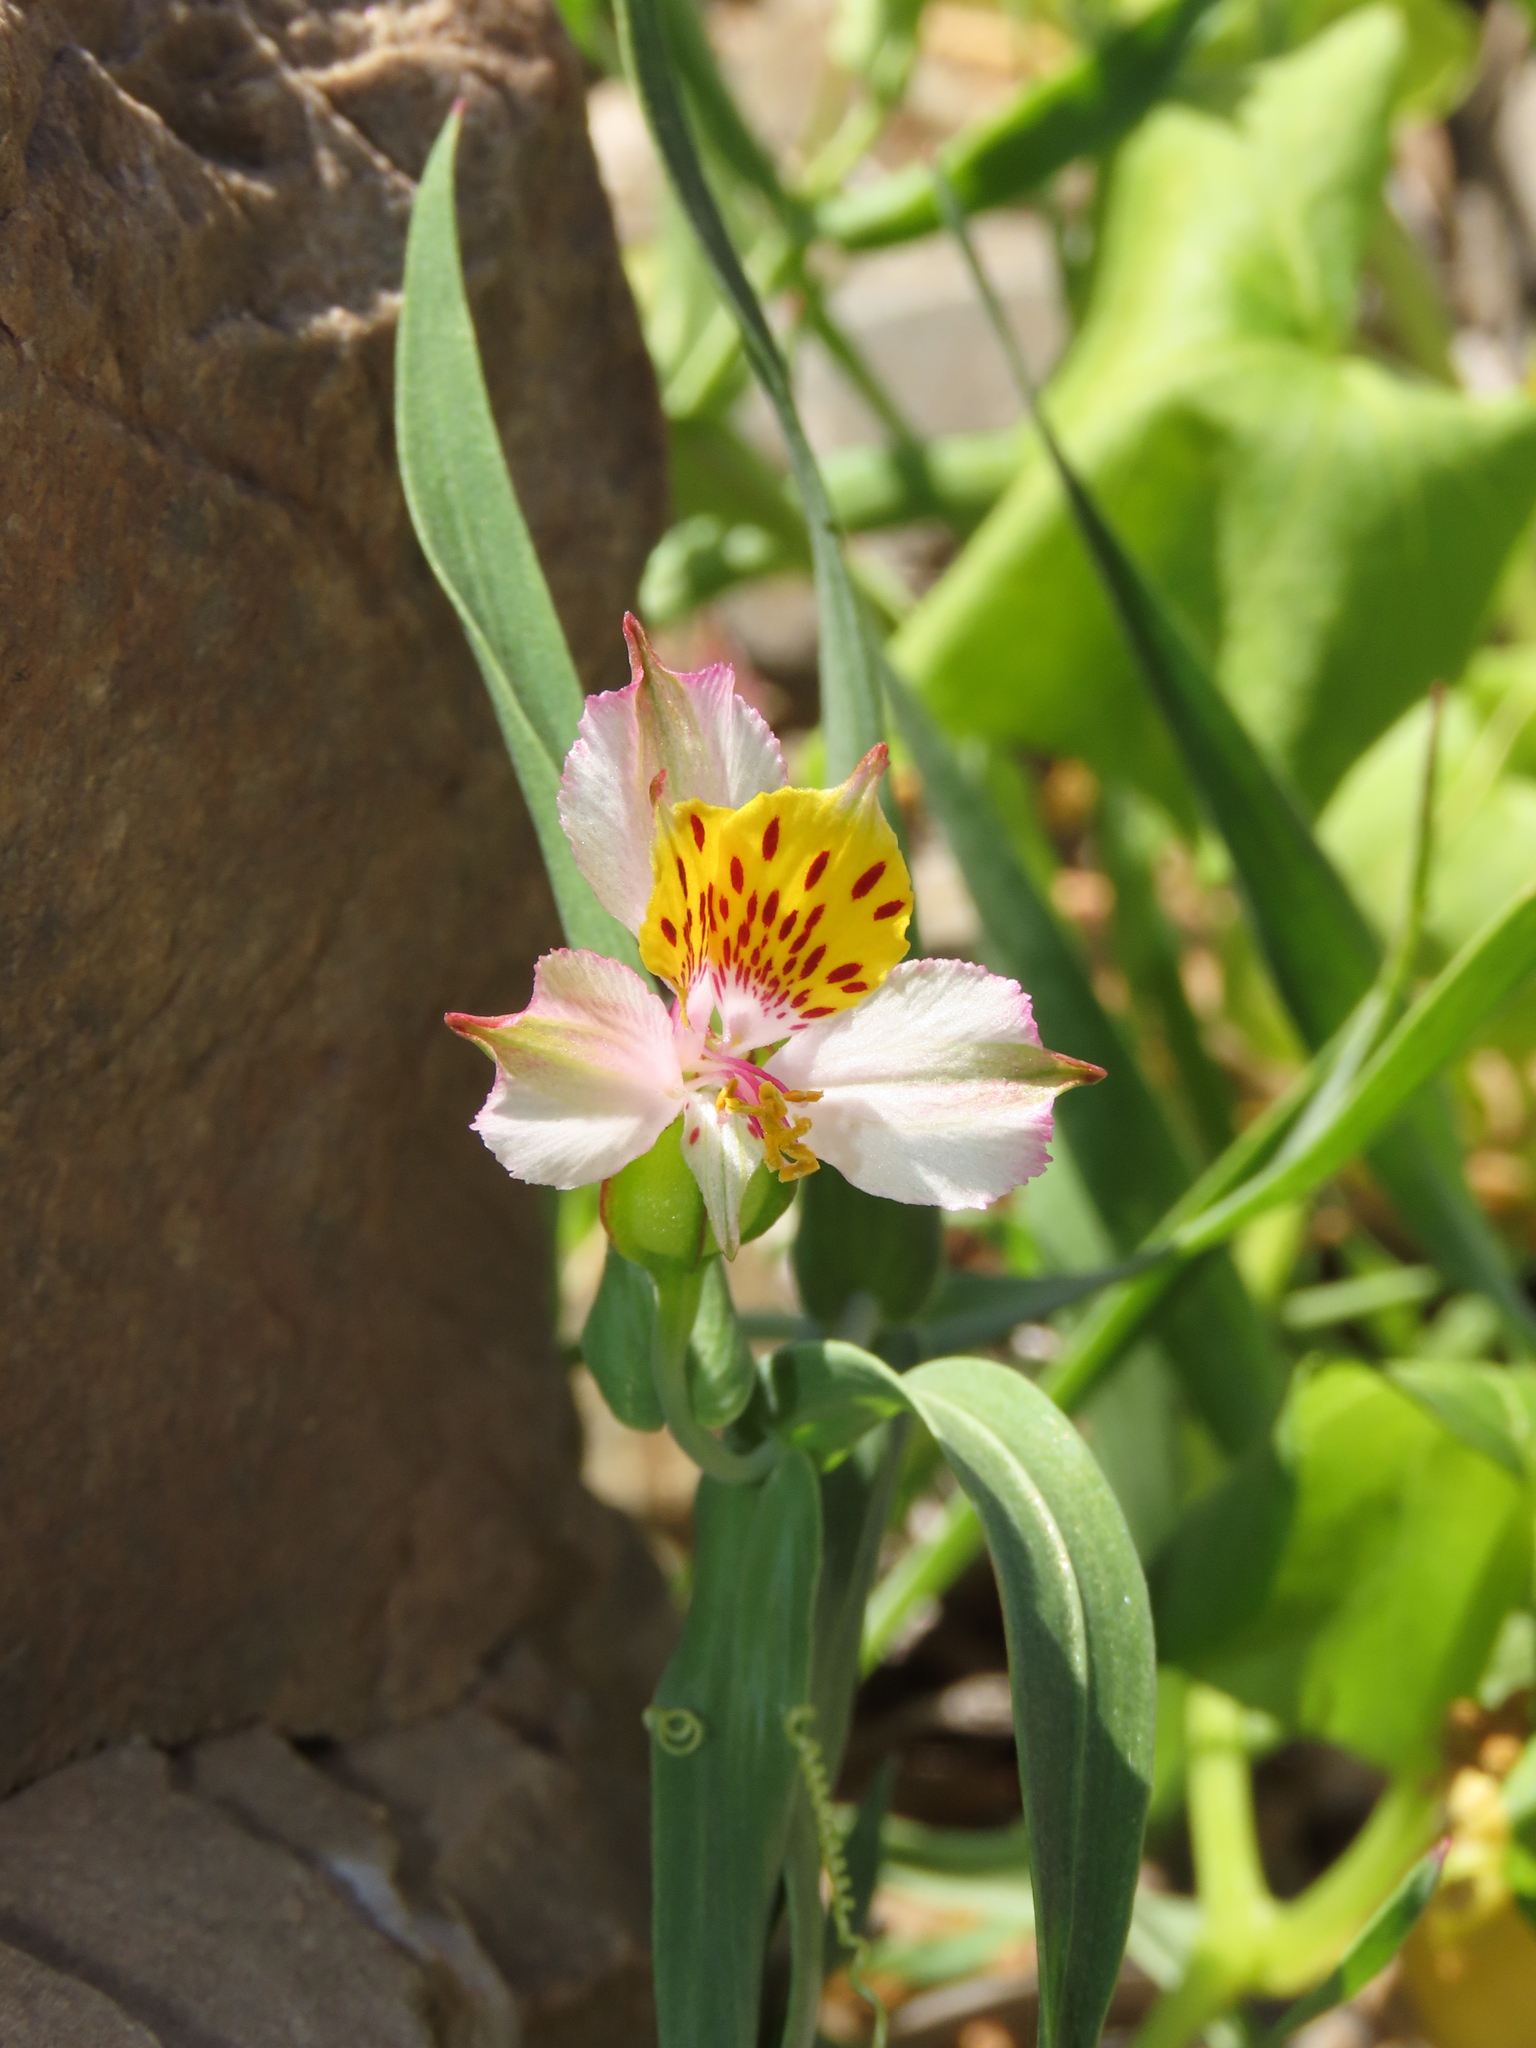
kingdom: Plantae
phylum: Tracheophyta
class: Liliopsida
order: Liliales
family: Alstroemeriaceae
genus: Alstroemeria
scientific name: Alstroemeria graminea
